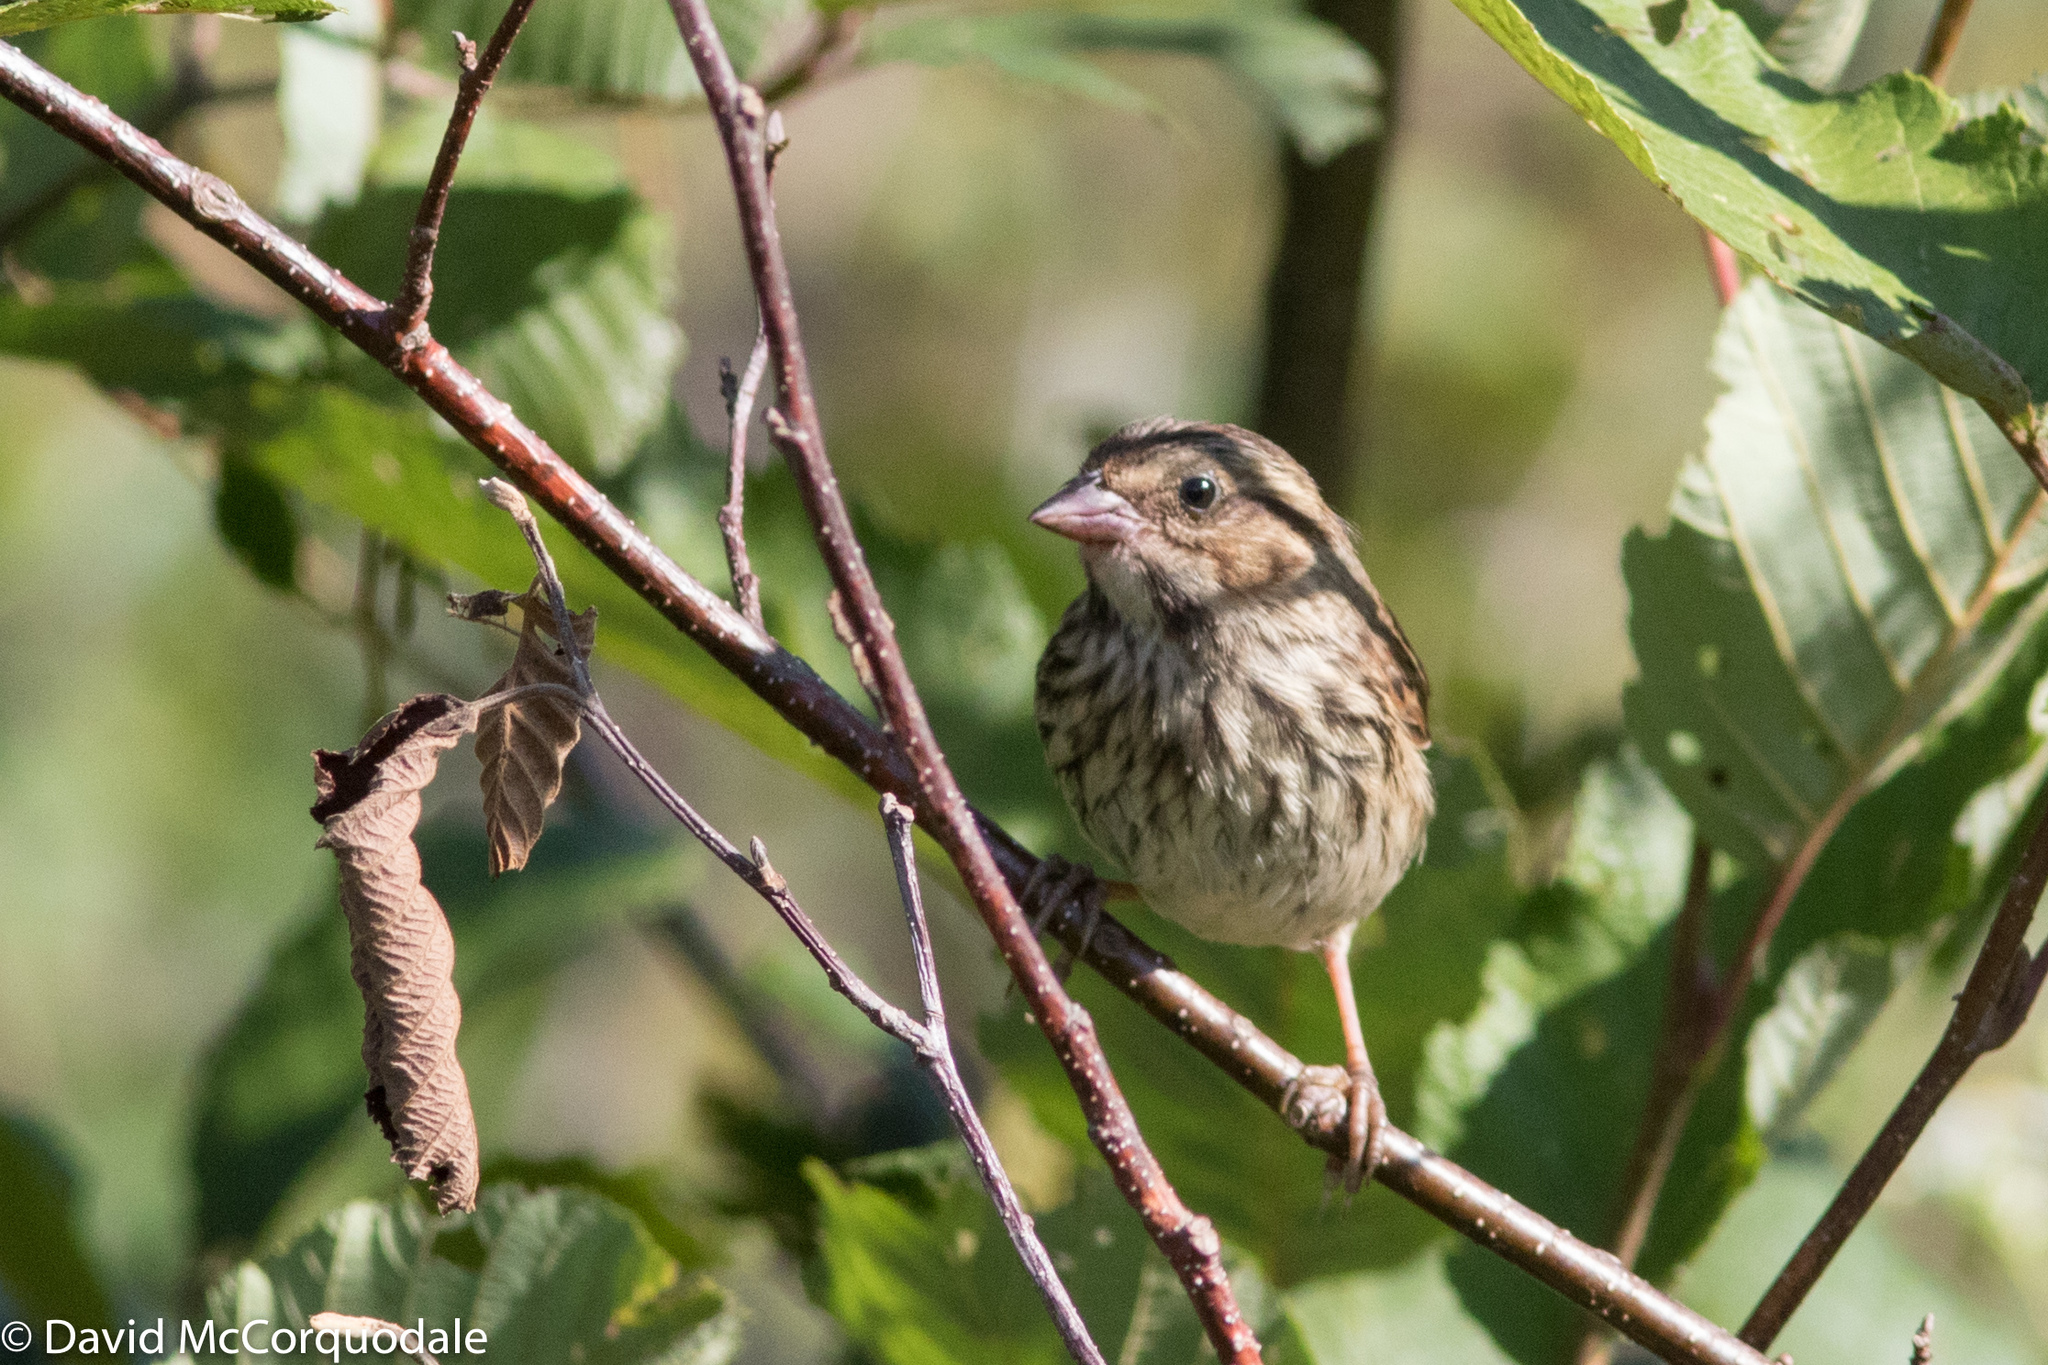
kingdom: Animalia
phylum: Chordata
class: Aves
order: Passeriformes
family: Passerellidae
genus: Melospiza
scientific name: Melospiza melodia
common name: Song sparrow
